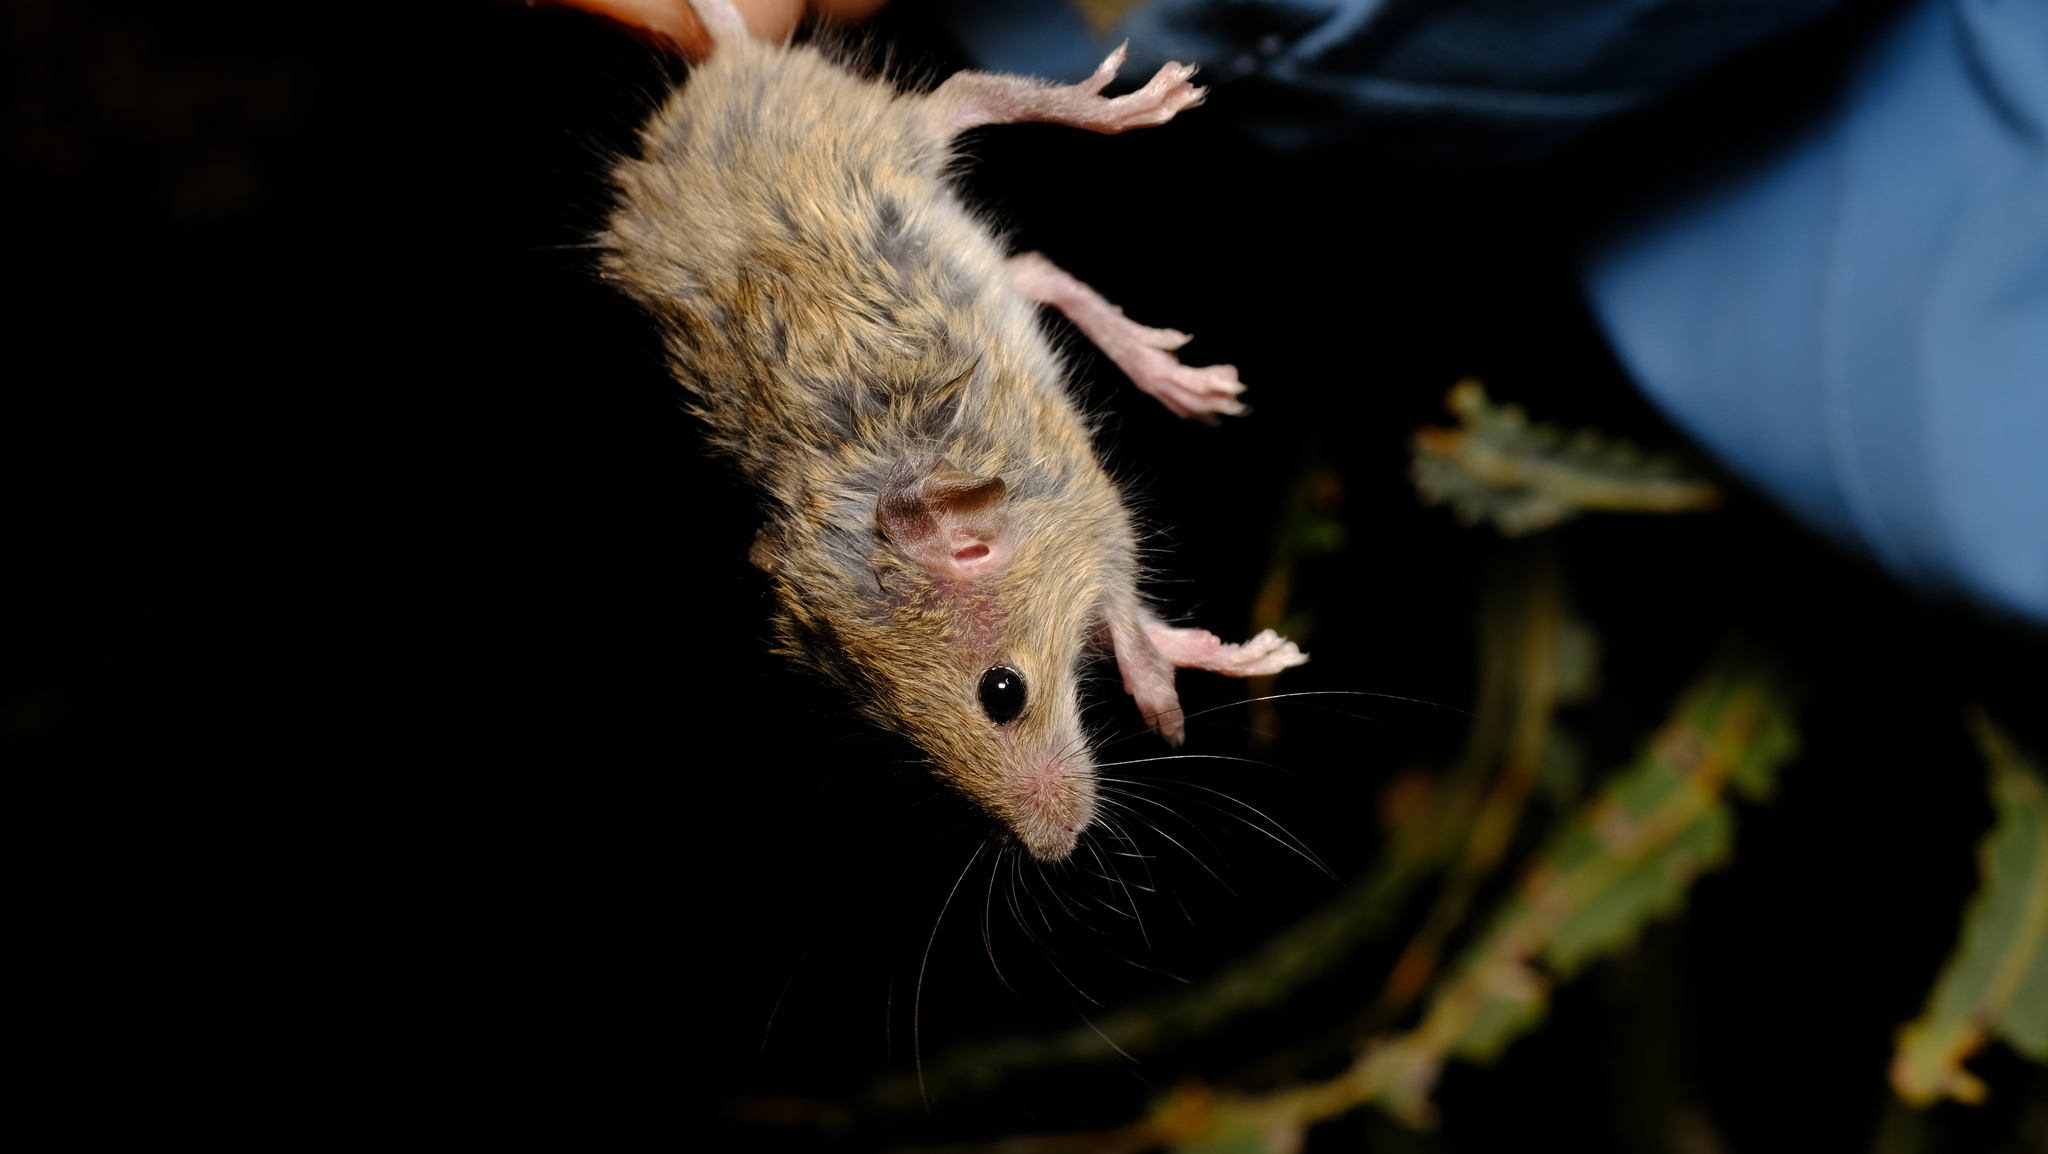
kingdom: Animalia
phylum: Chordata
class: Mammalia
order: Rodentia
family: Muridae
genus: Mus
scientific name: Mus musculus
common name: House mouse
